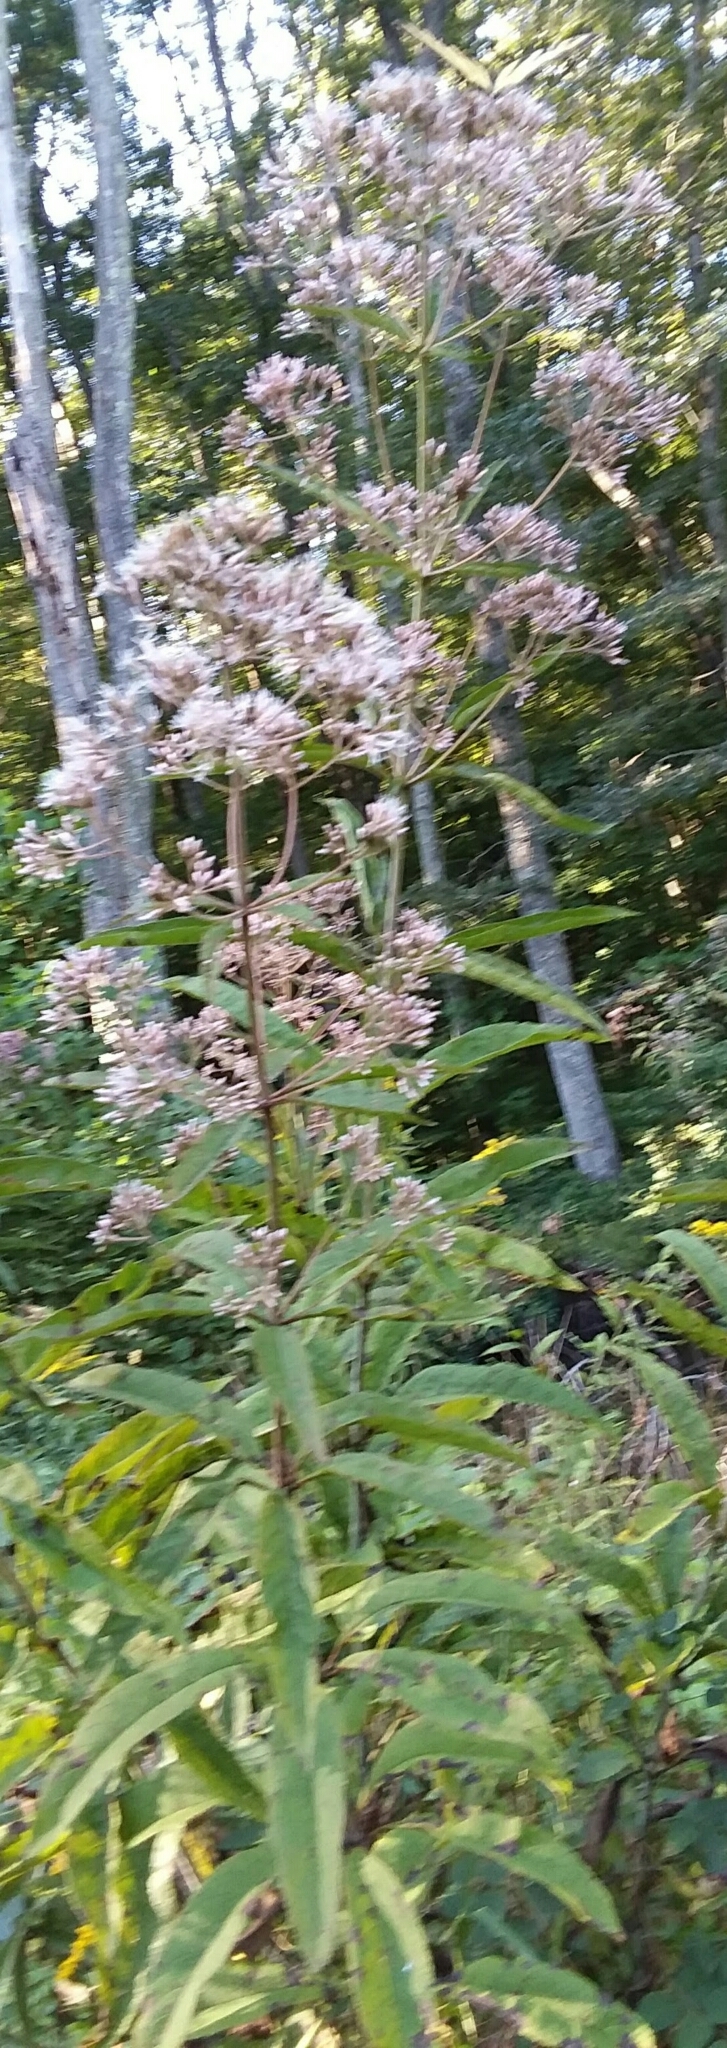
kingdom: Plantae
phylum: Tracheophyta
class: Magnoliopsida
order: Asterales
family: Asteraceae
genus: Eutrochium
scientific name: Eutrochium fistulosum
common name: Trumpetweed
